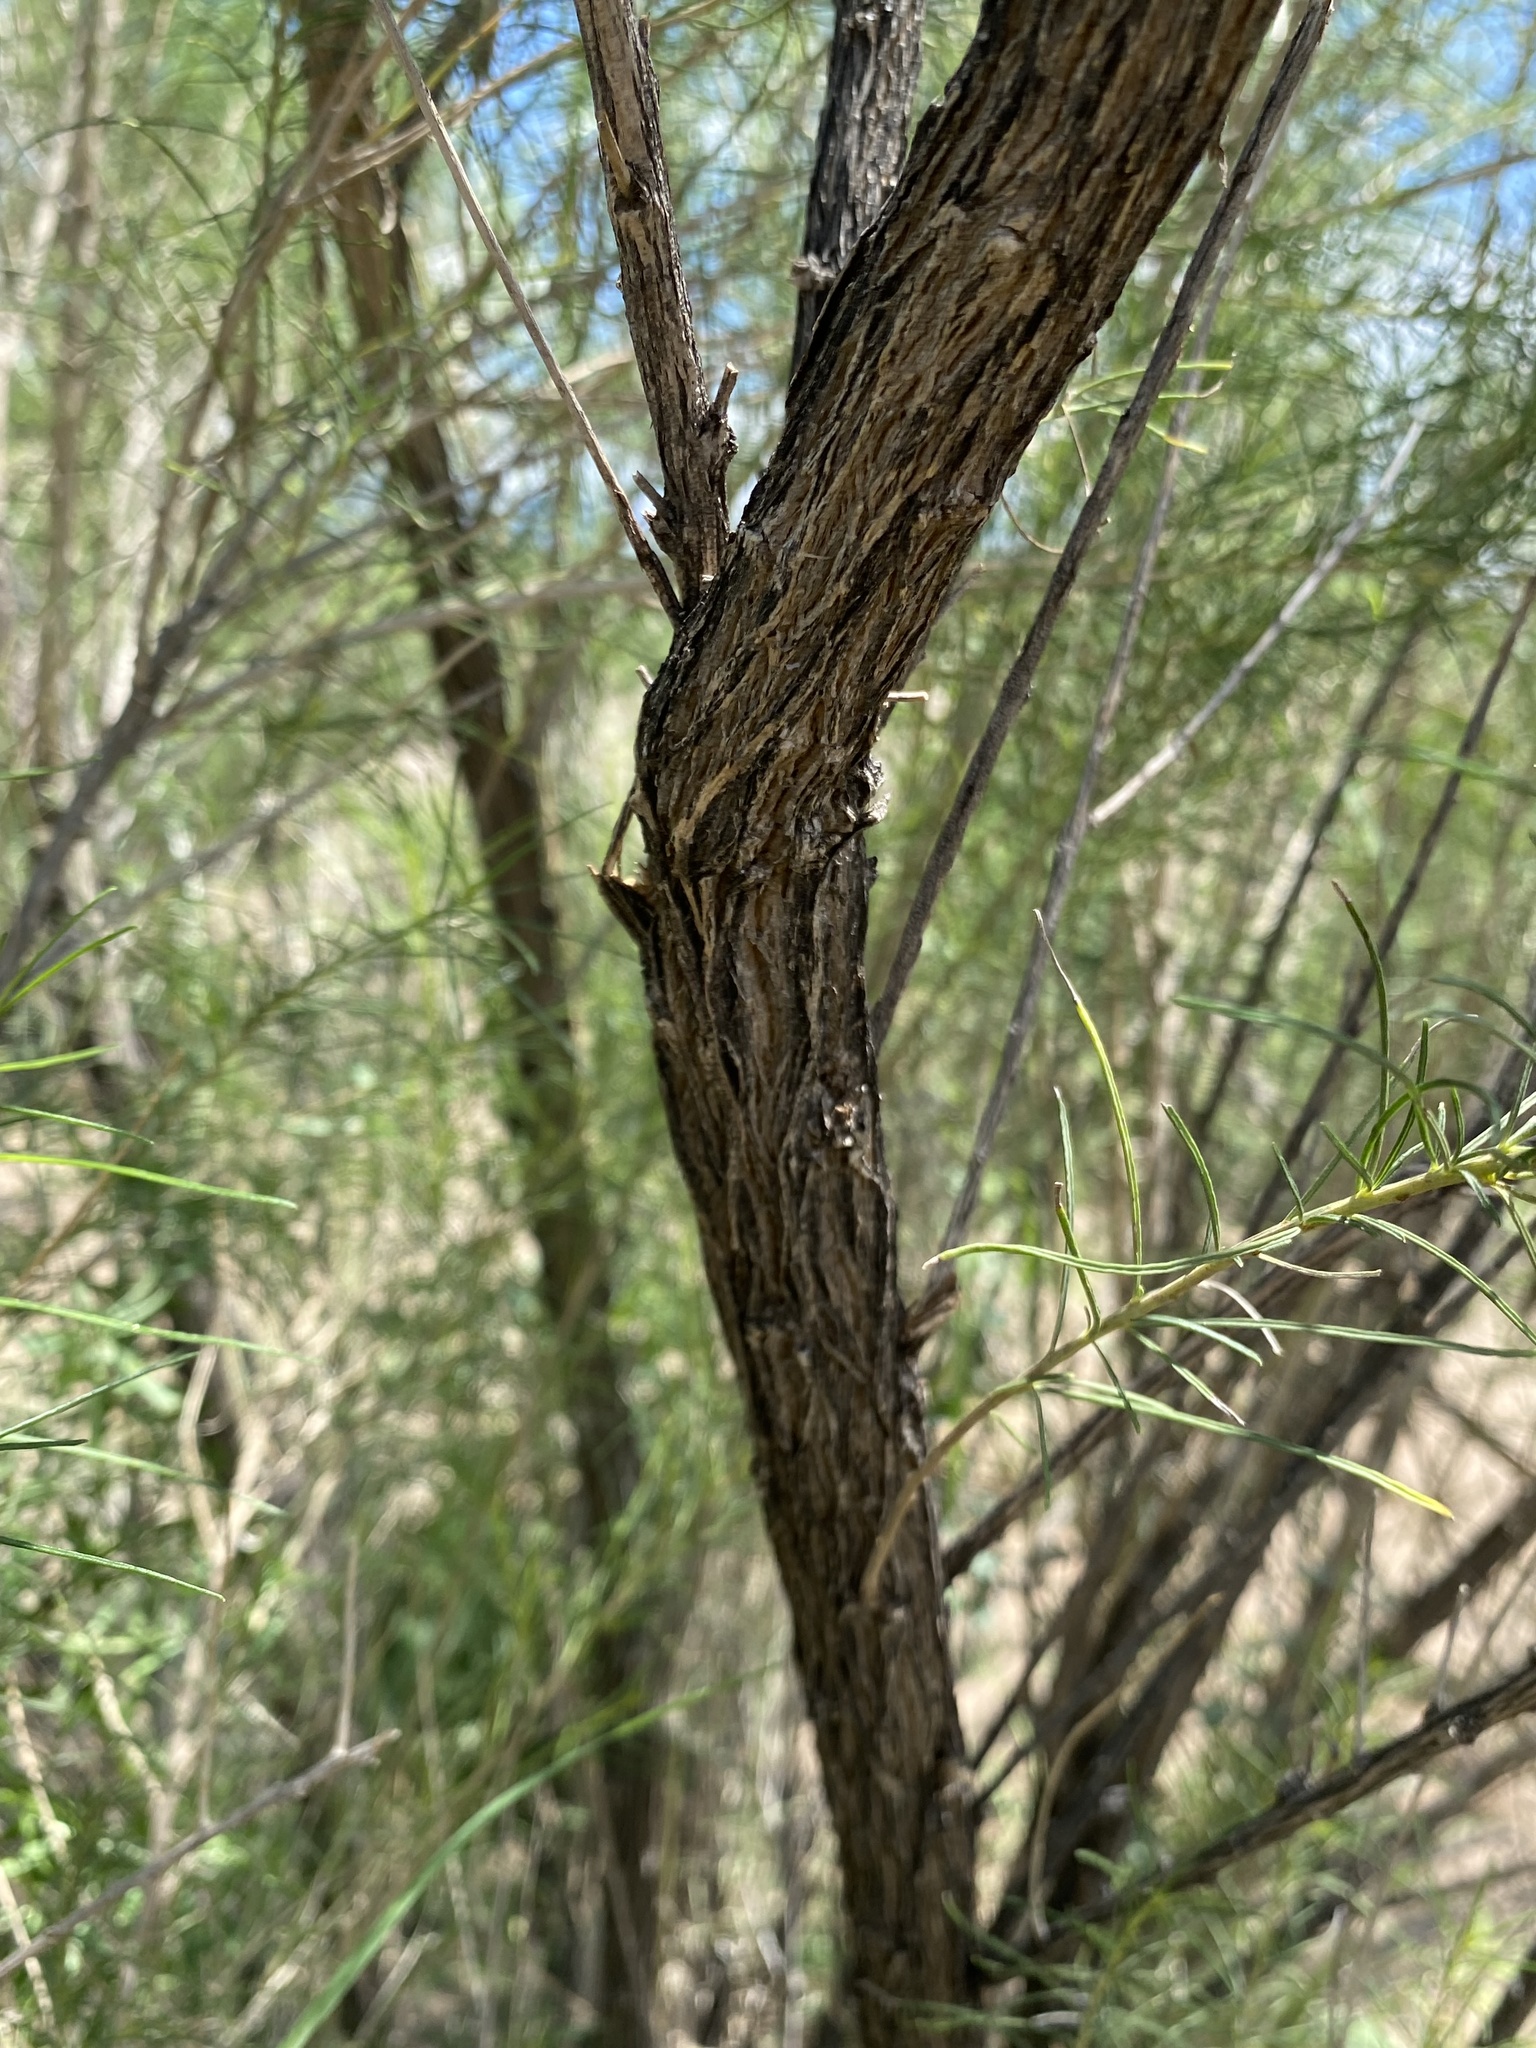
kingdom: Plantae
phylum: Tracheophyta
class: Magnoliopsida
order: Asterales
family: Asteraceae
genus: Ambrosia
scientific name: Ambrosia monogyra
